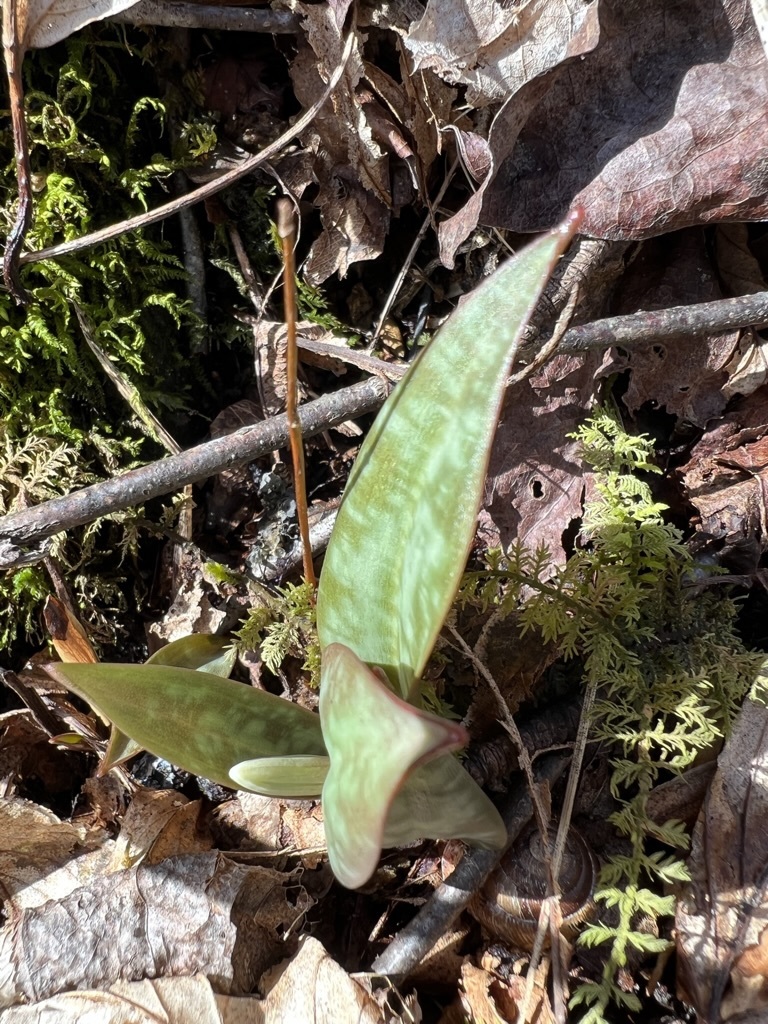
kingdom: Plantae
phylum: Tracheophyta
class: Liliopsida
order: Liliales
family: Liliaceae
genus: Erythronium
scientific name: Erythronium umbilicatum
